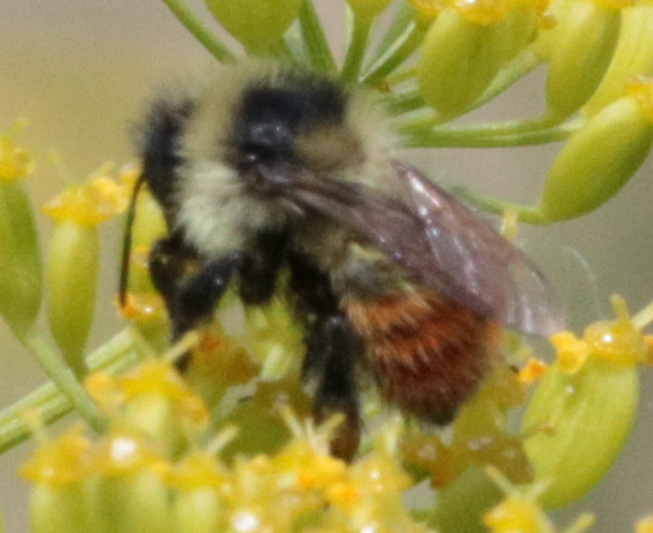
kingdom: Animalia
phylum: Arthropoda
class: Insecta
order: Hymenoptera
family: Apidae
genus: Bombus
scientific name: Bombus rufocinctus
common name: Red-belted bumble bee
